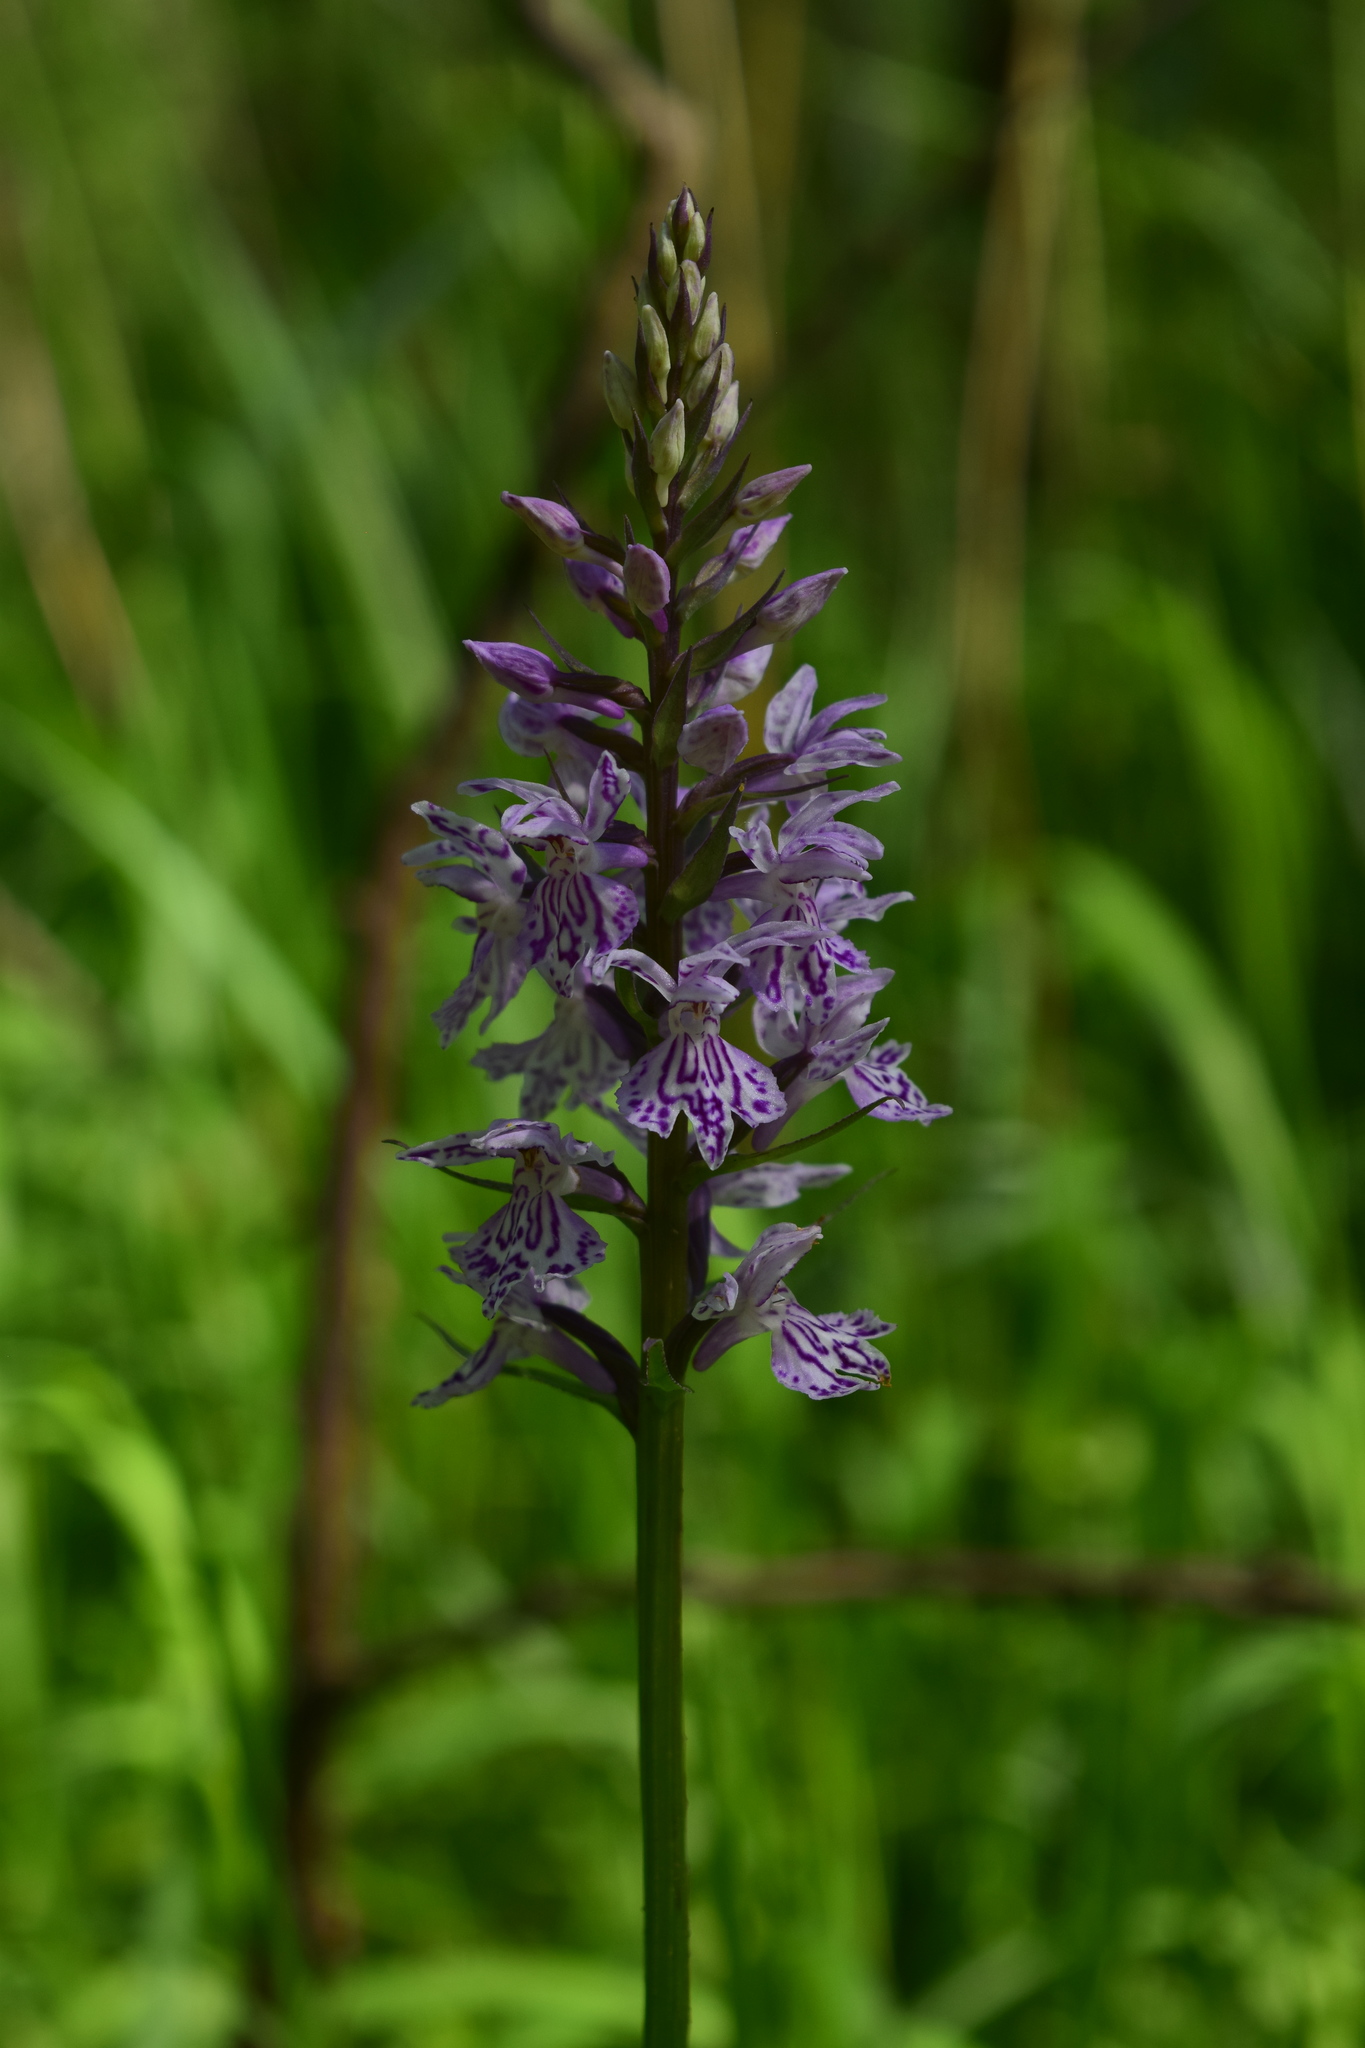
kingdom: Plantae
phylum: Tracheophyta
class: Liliopsida
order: Asparagales
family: Orchidaceae
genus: Dactylorhiza
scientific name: Dactylorhiza maculata
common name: Heath spotted-orchid
